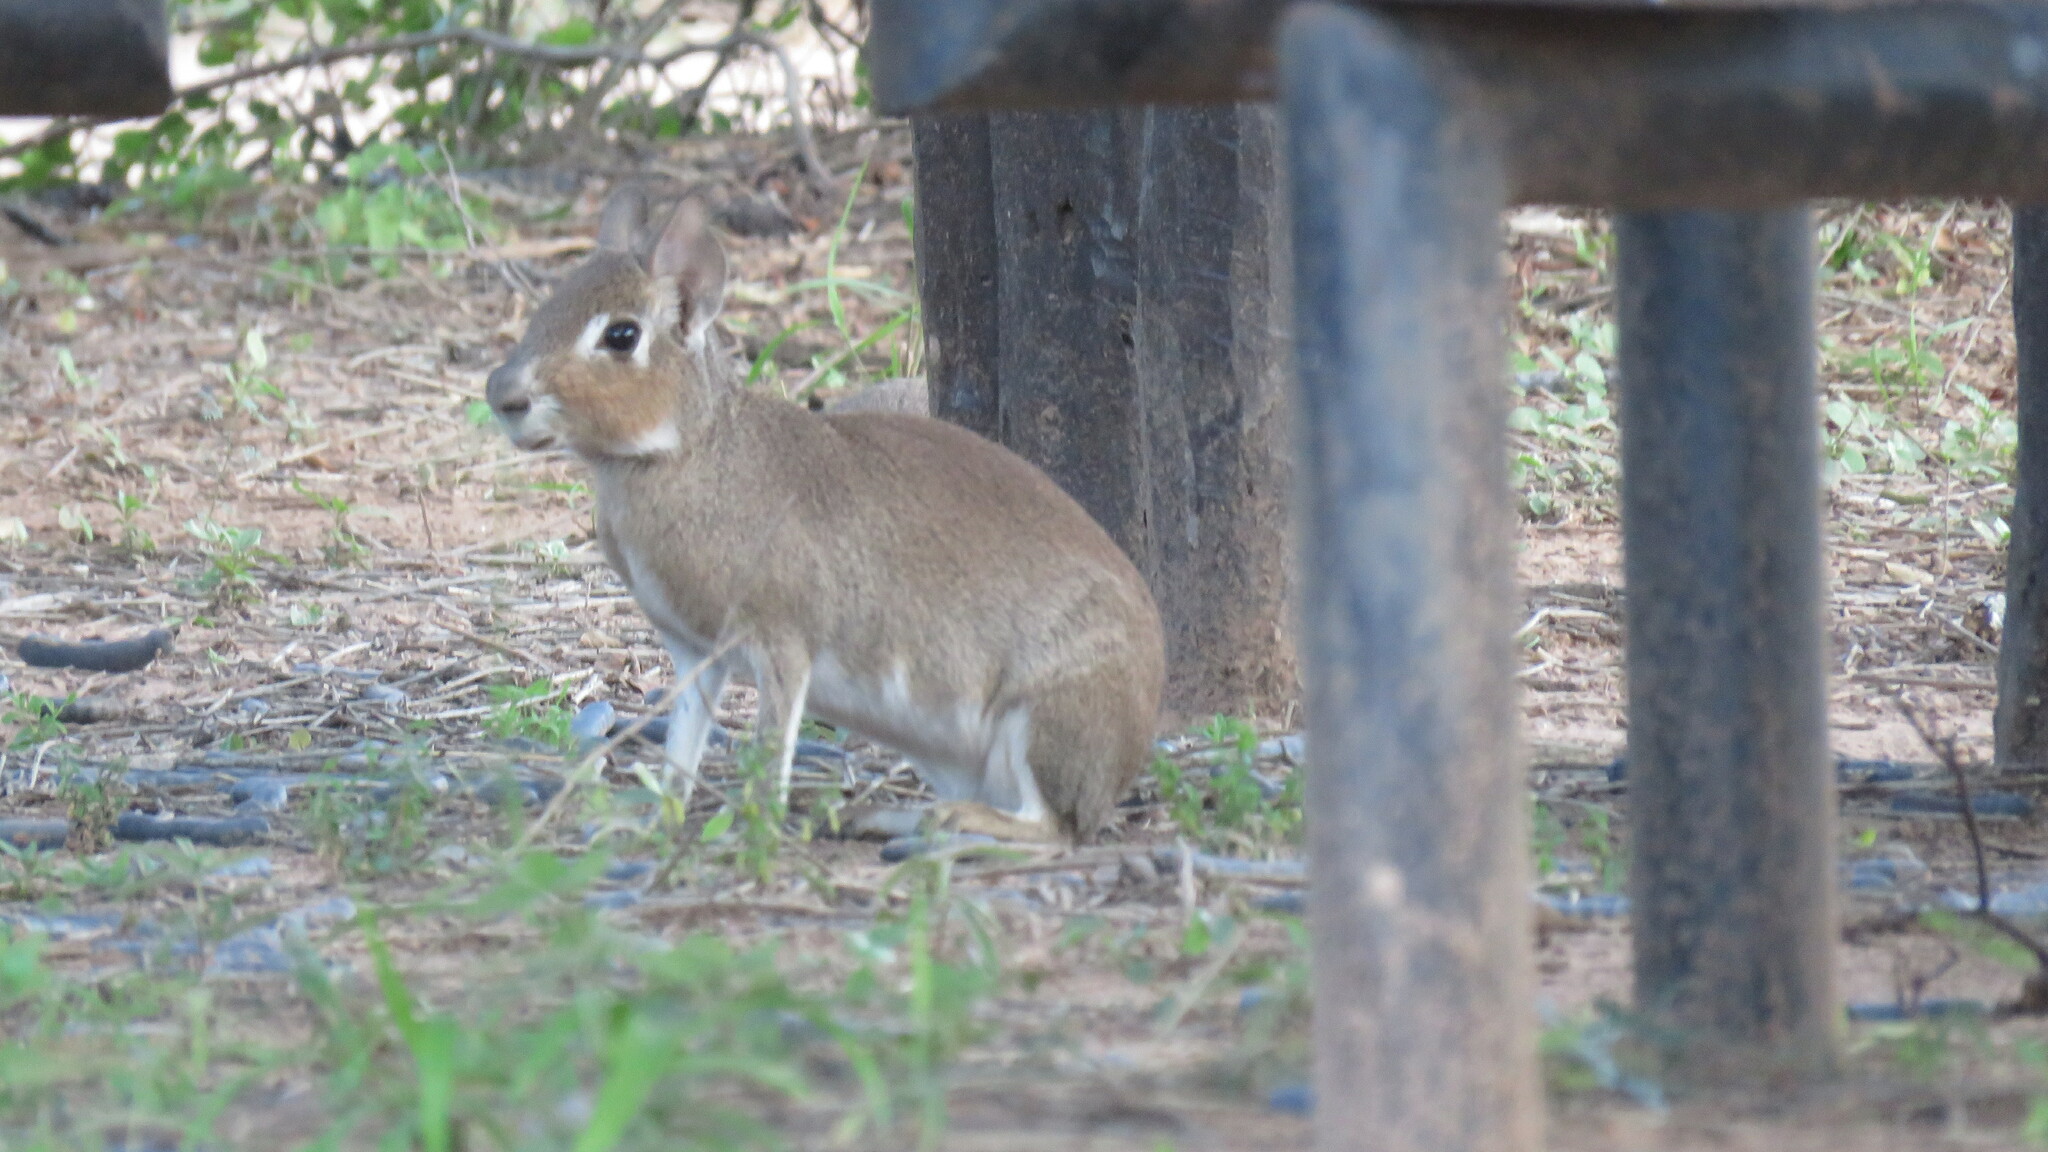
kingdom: Animalia
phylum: Chordata
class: Mammalia
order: Rodentia
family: Caviidae
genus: Dolichotis
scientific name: Dolichotis Pediolagus salinicola
